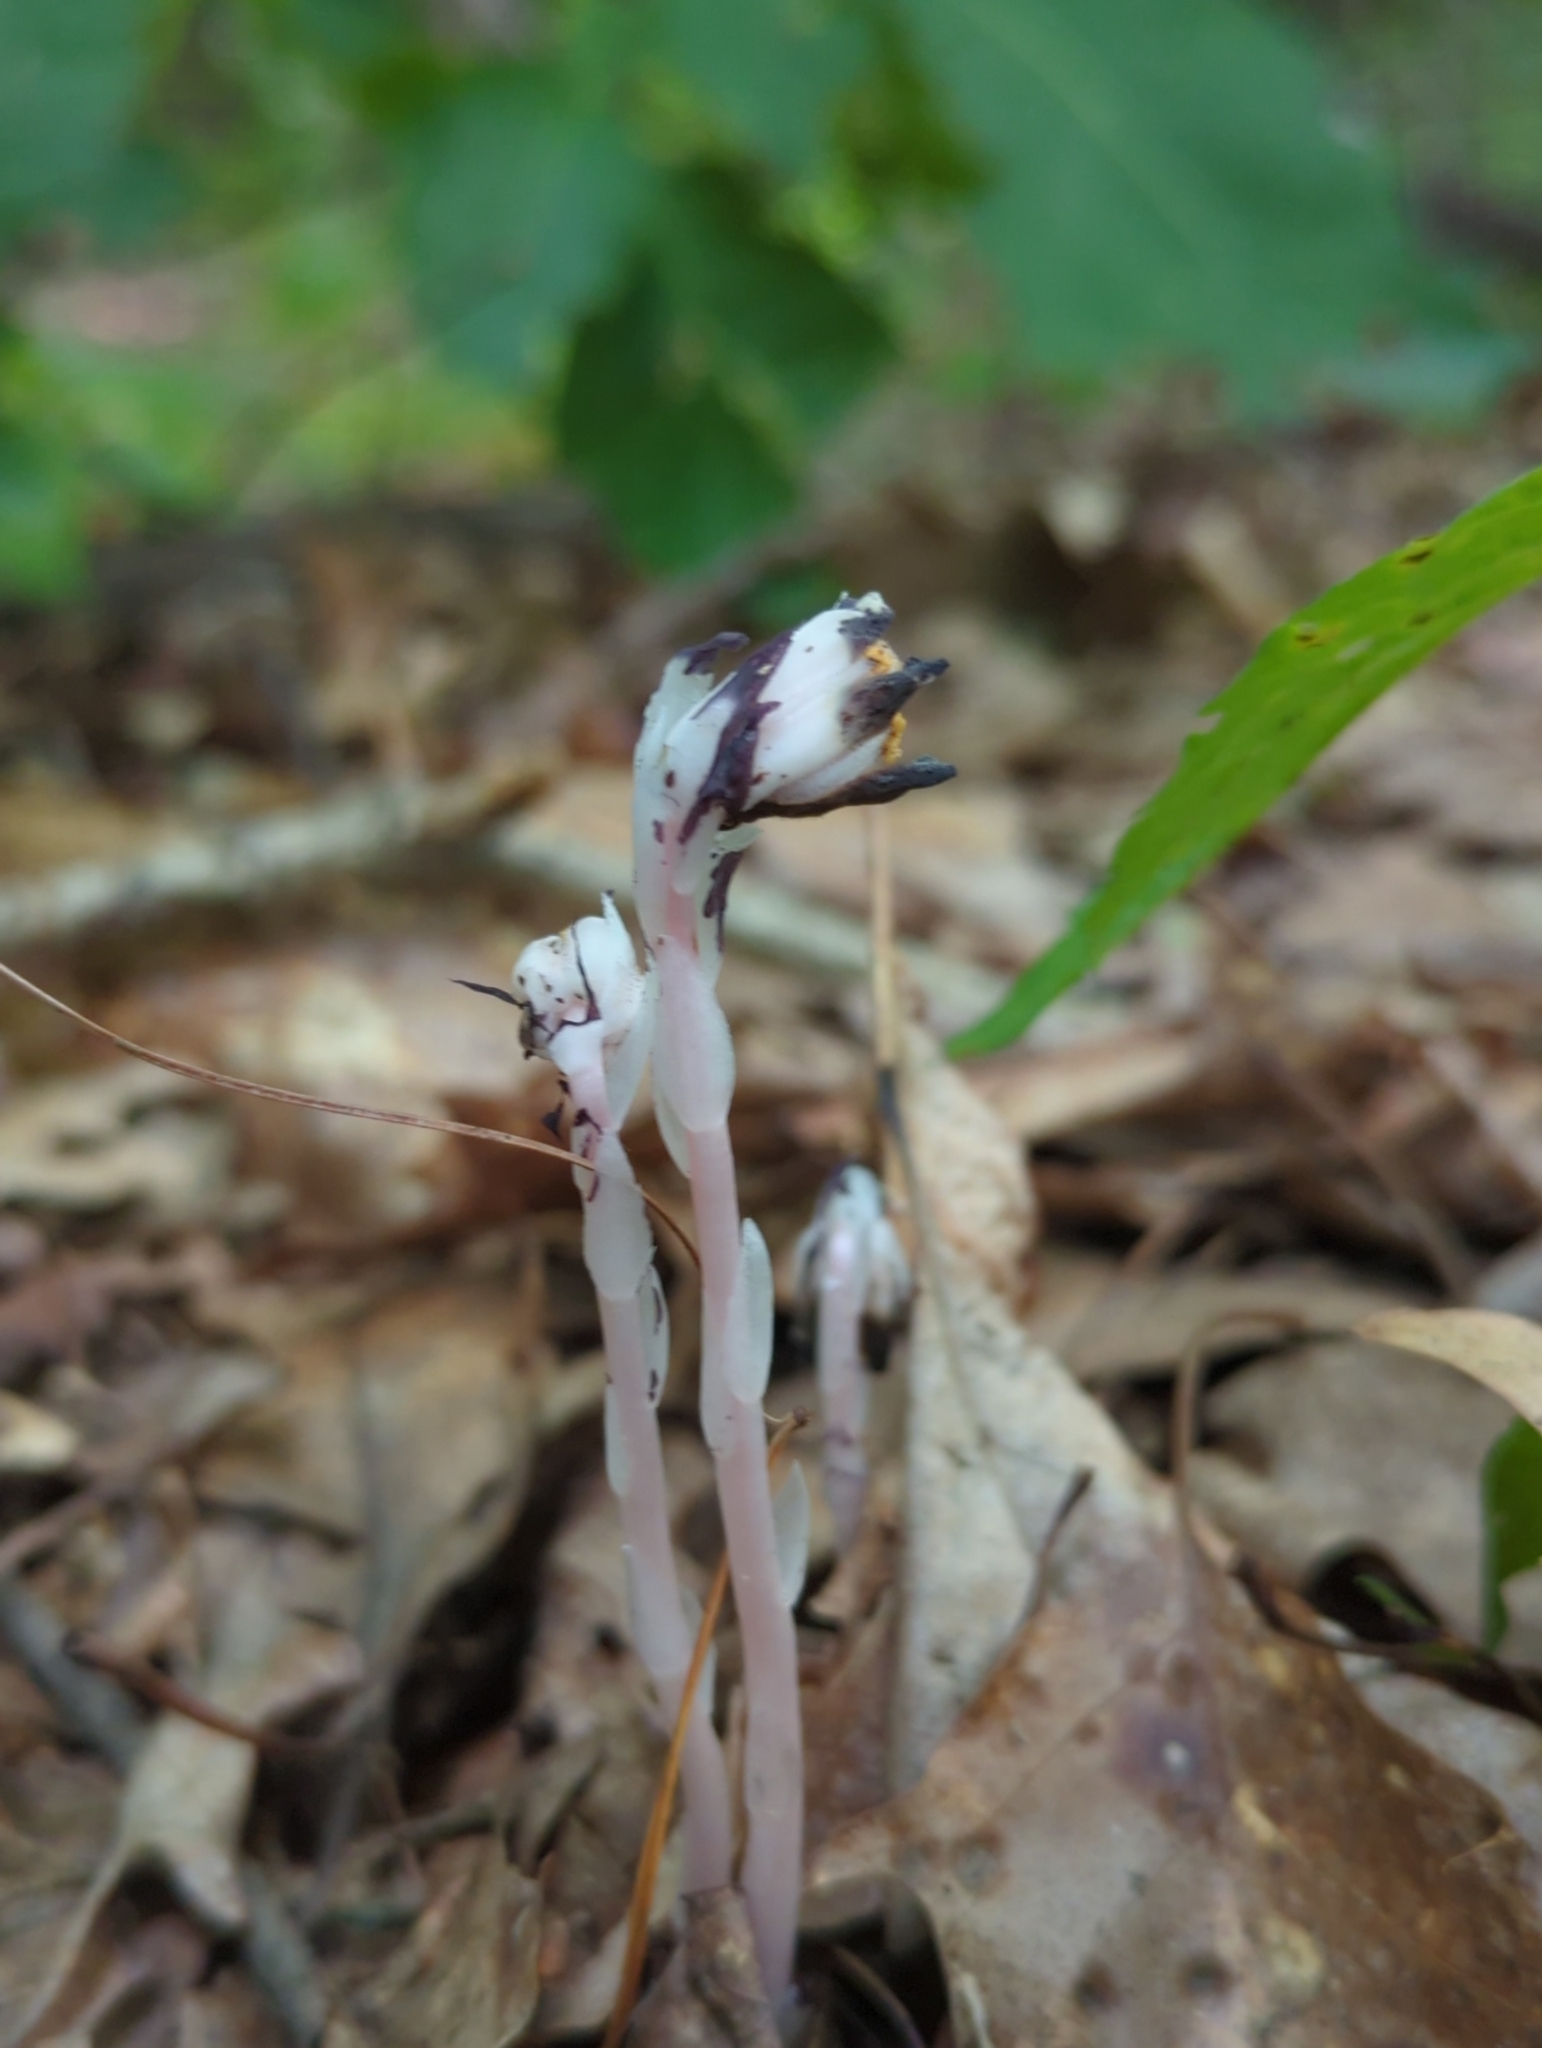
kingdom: Plantae
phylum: Tracheophyta
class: Magnoliopsida
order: Ericales
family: Ericaceae
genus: Monotropa
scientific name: Monotropa uniflora
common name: Convulsion root
